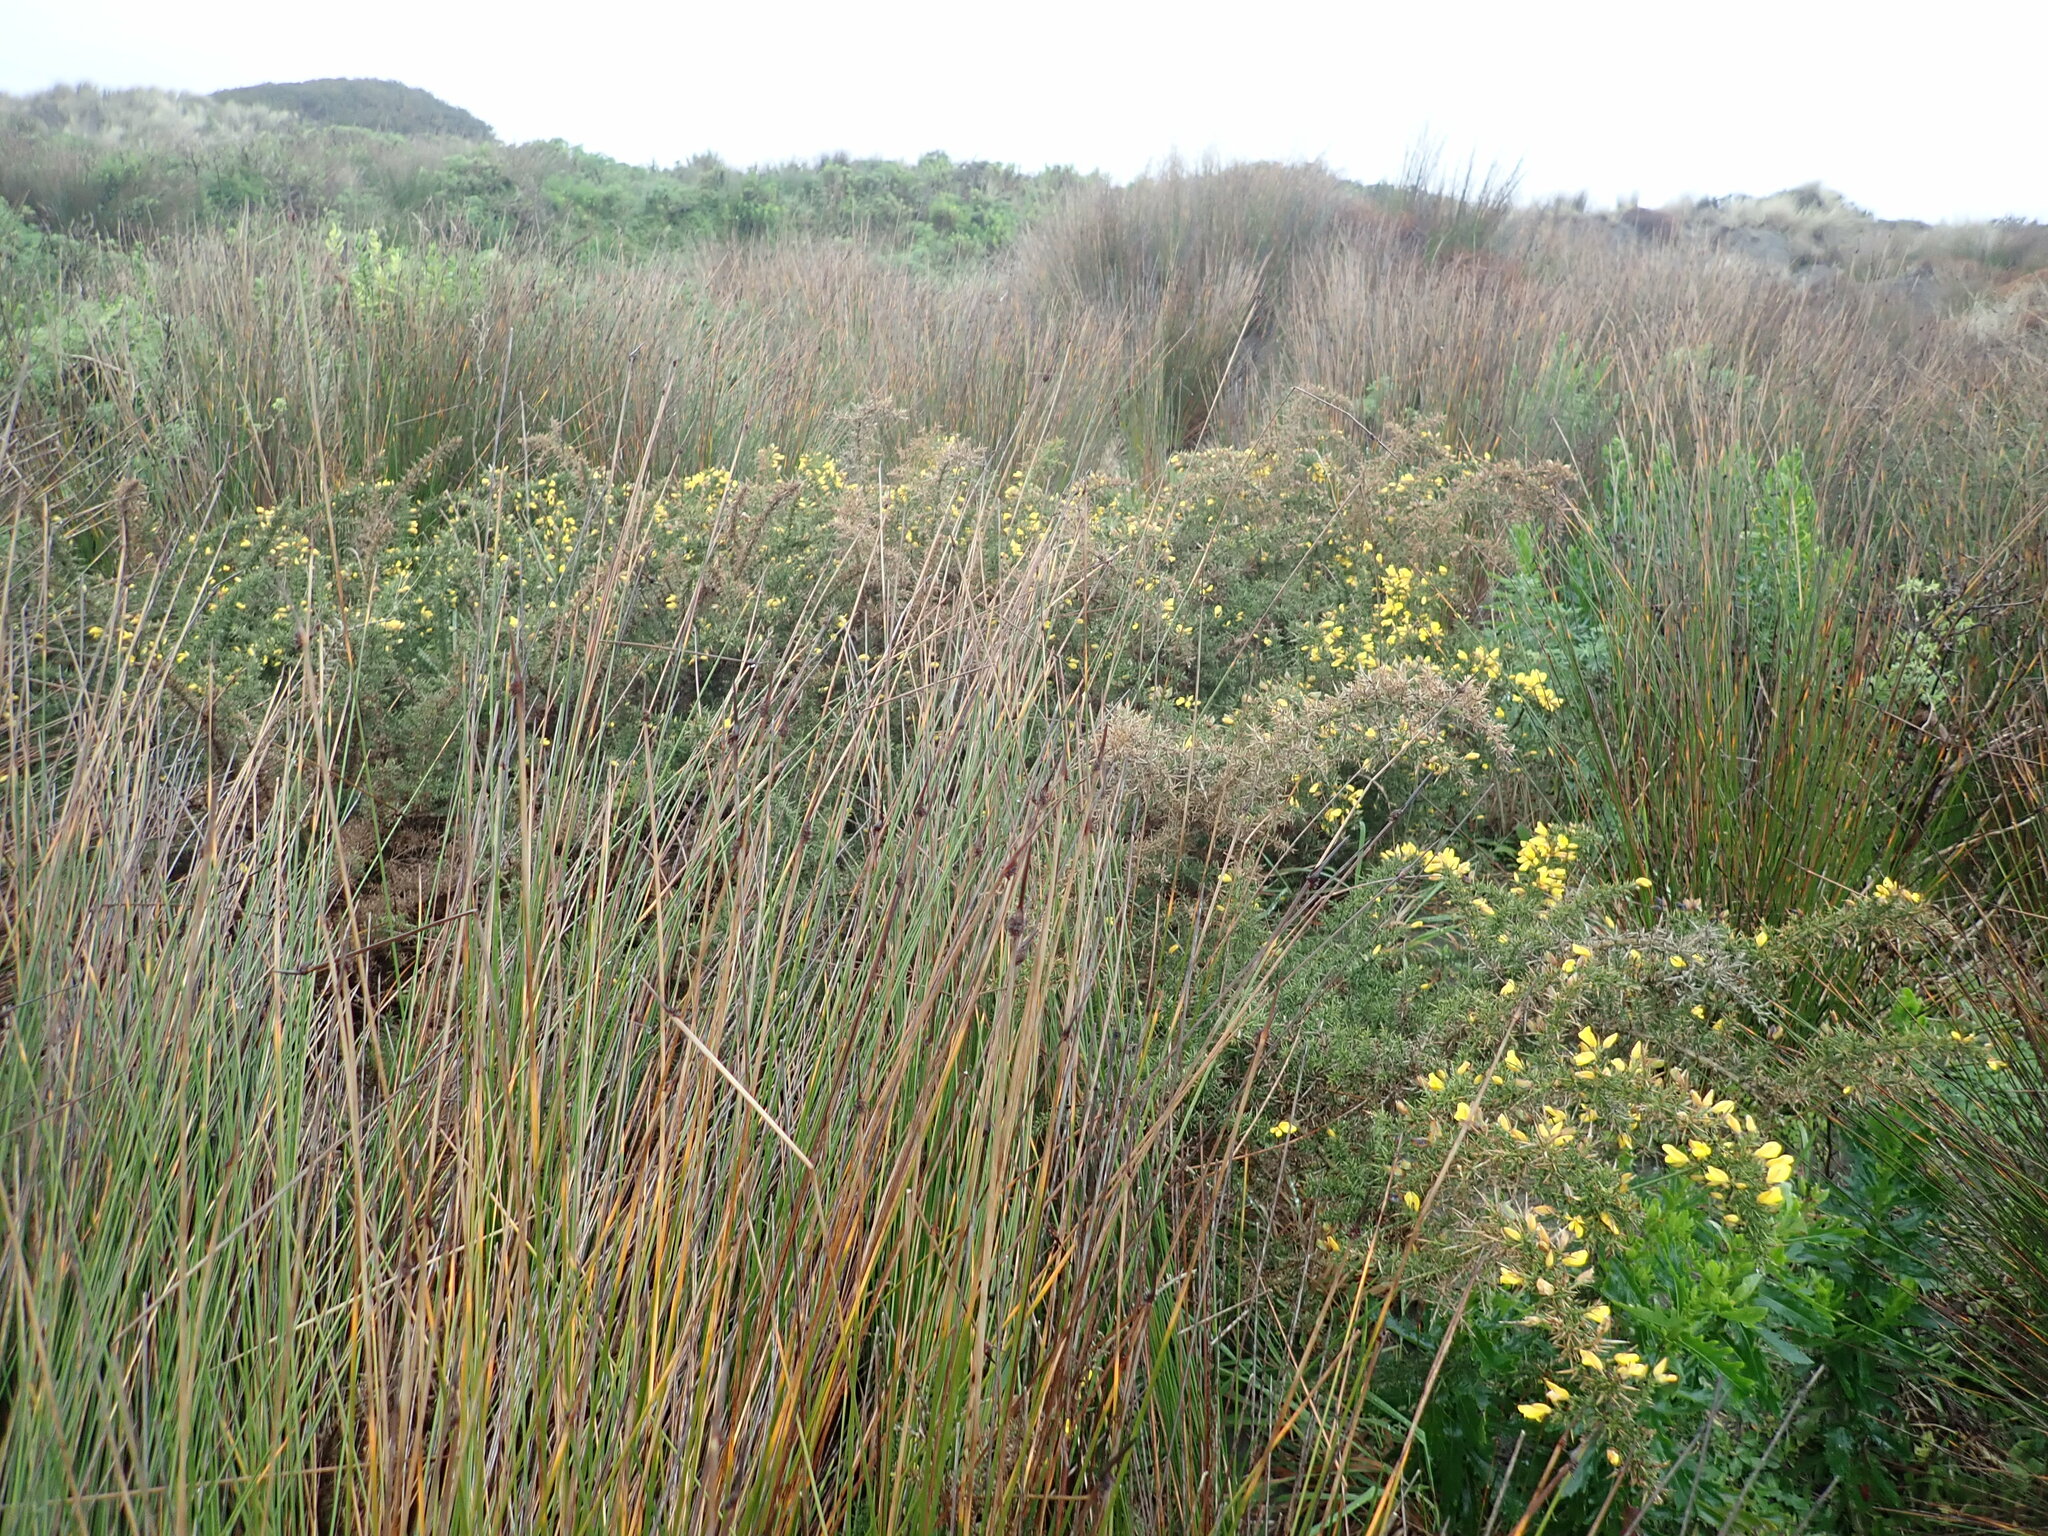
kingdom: Plantae
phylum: Tracheophyta
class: Magnoliopsida
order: Fabales
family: Fabaceae
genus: Ulex
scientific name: Ulex europaeus
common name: Common gorse
